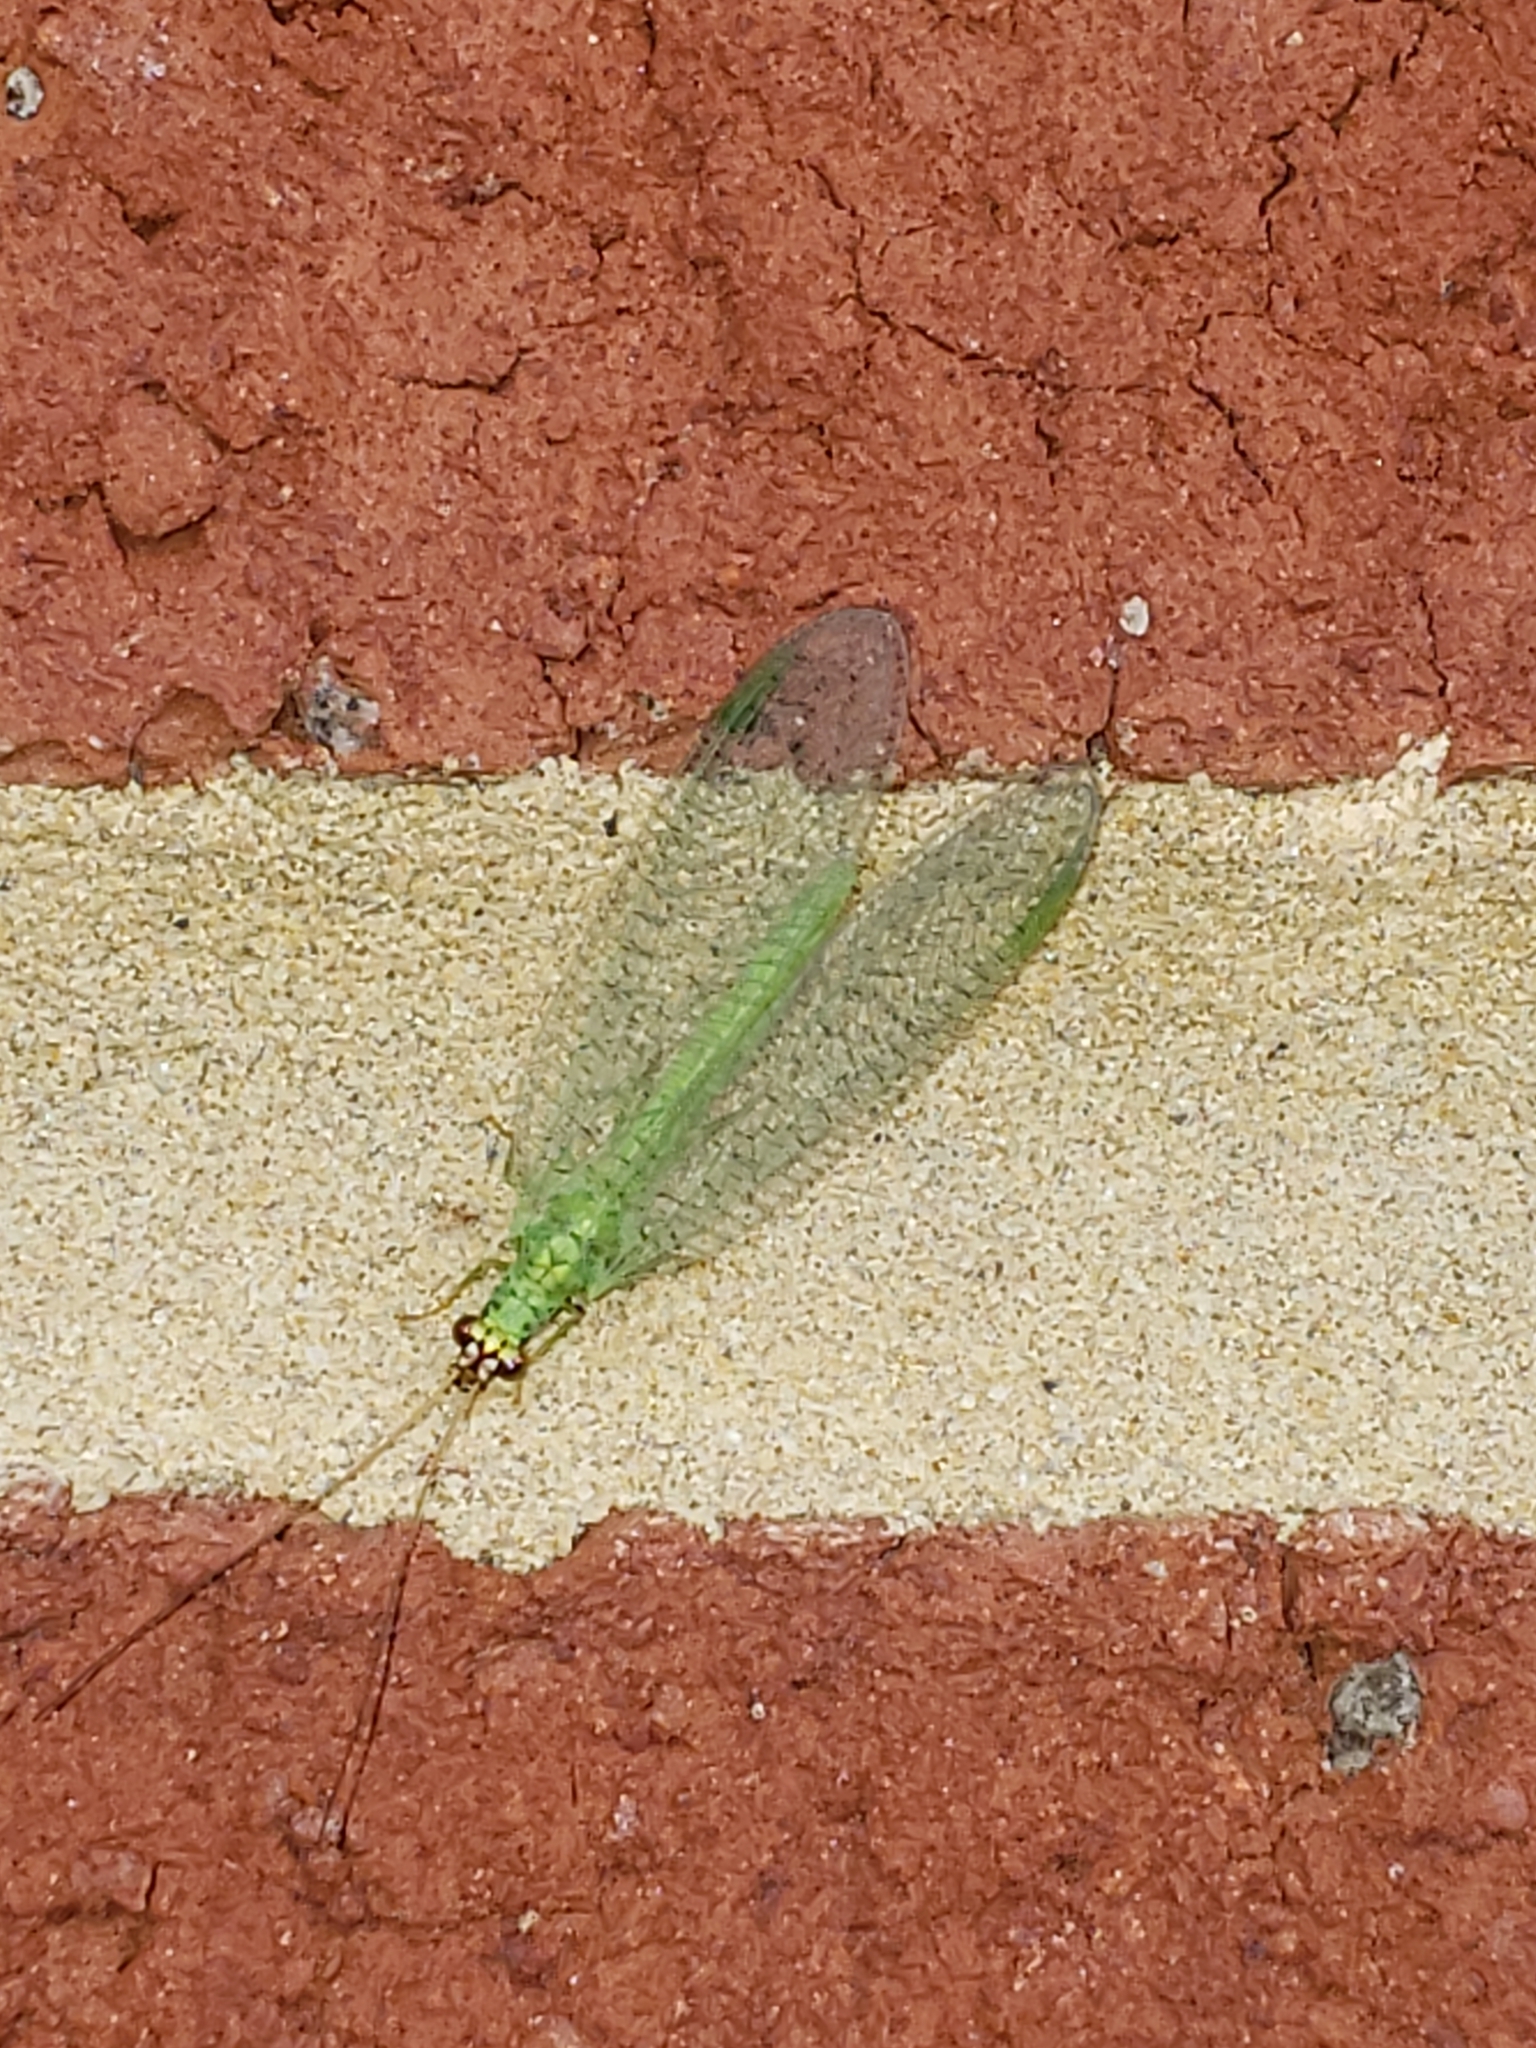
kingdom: Animalia
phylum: Arthropoda
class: Insecta
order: Neuroptera
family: Chrysopidae
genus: Chrysopa
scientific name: Chrysopa oculata
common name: Golden-eyed lacewing
